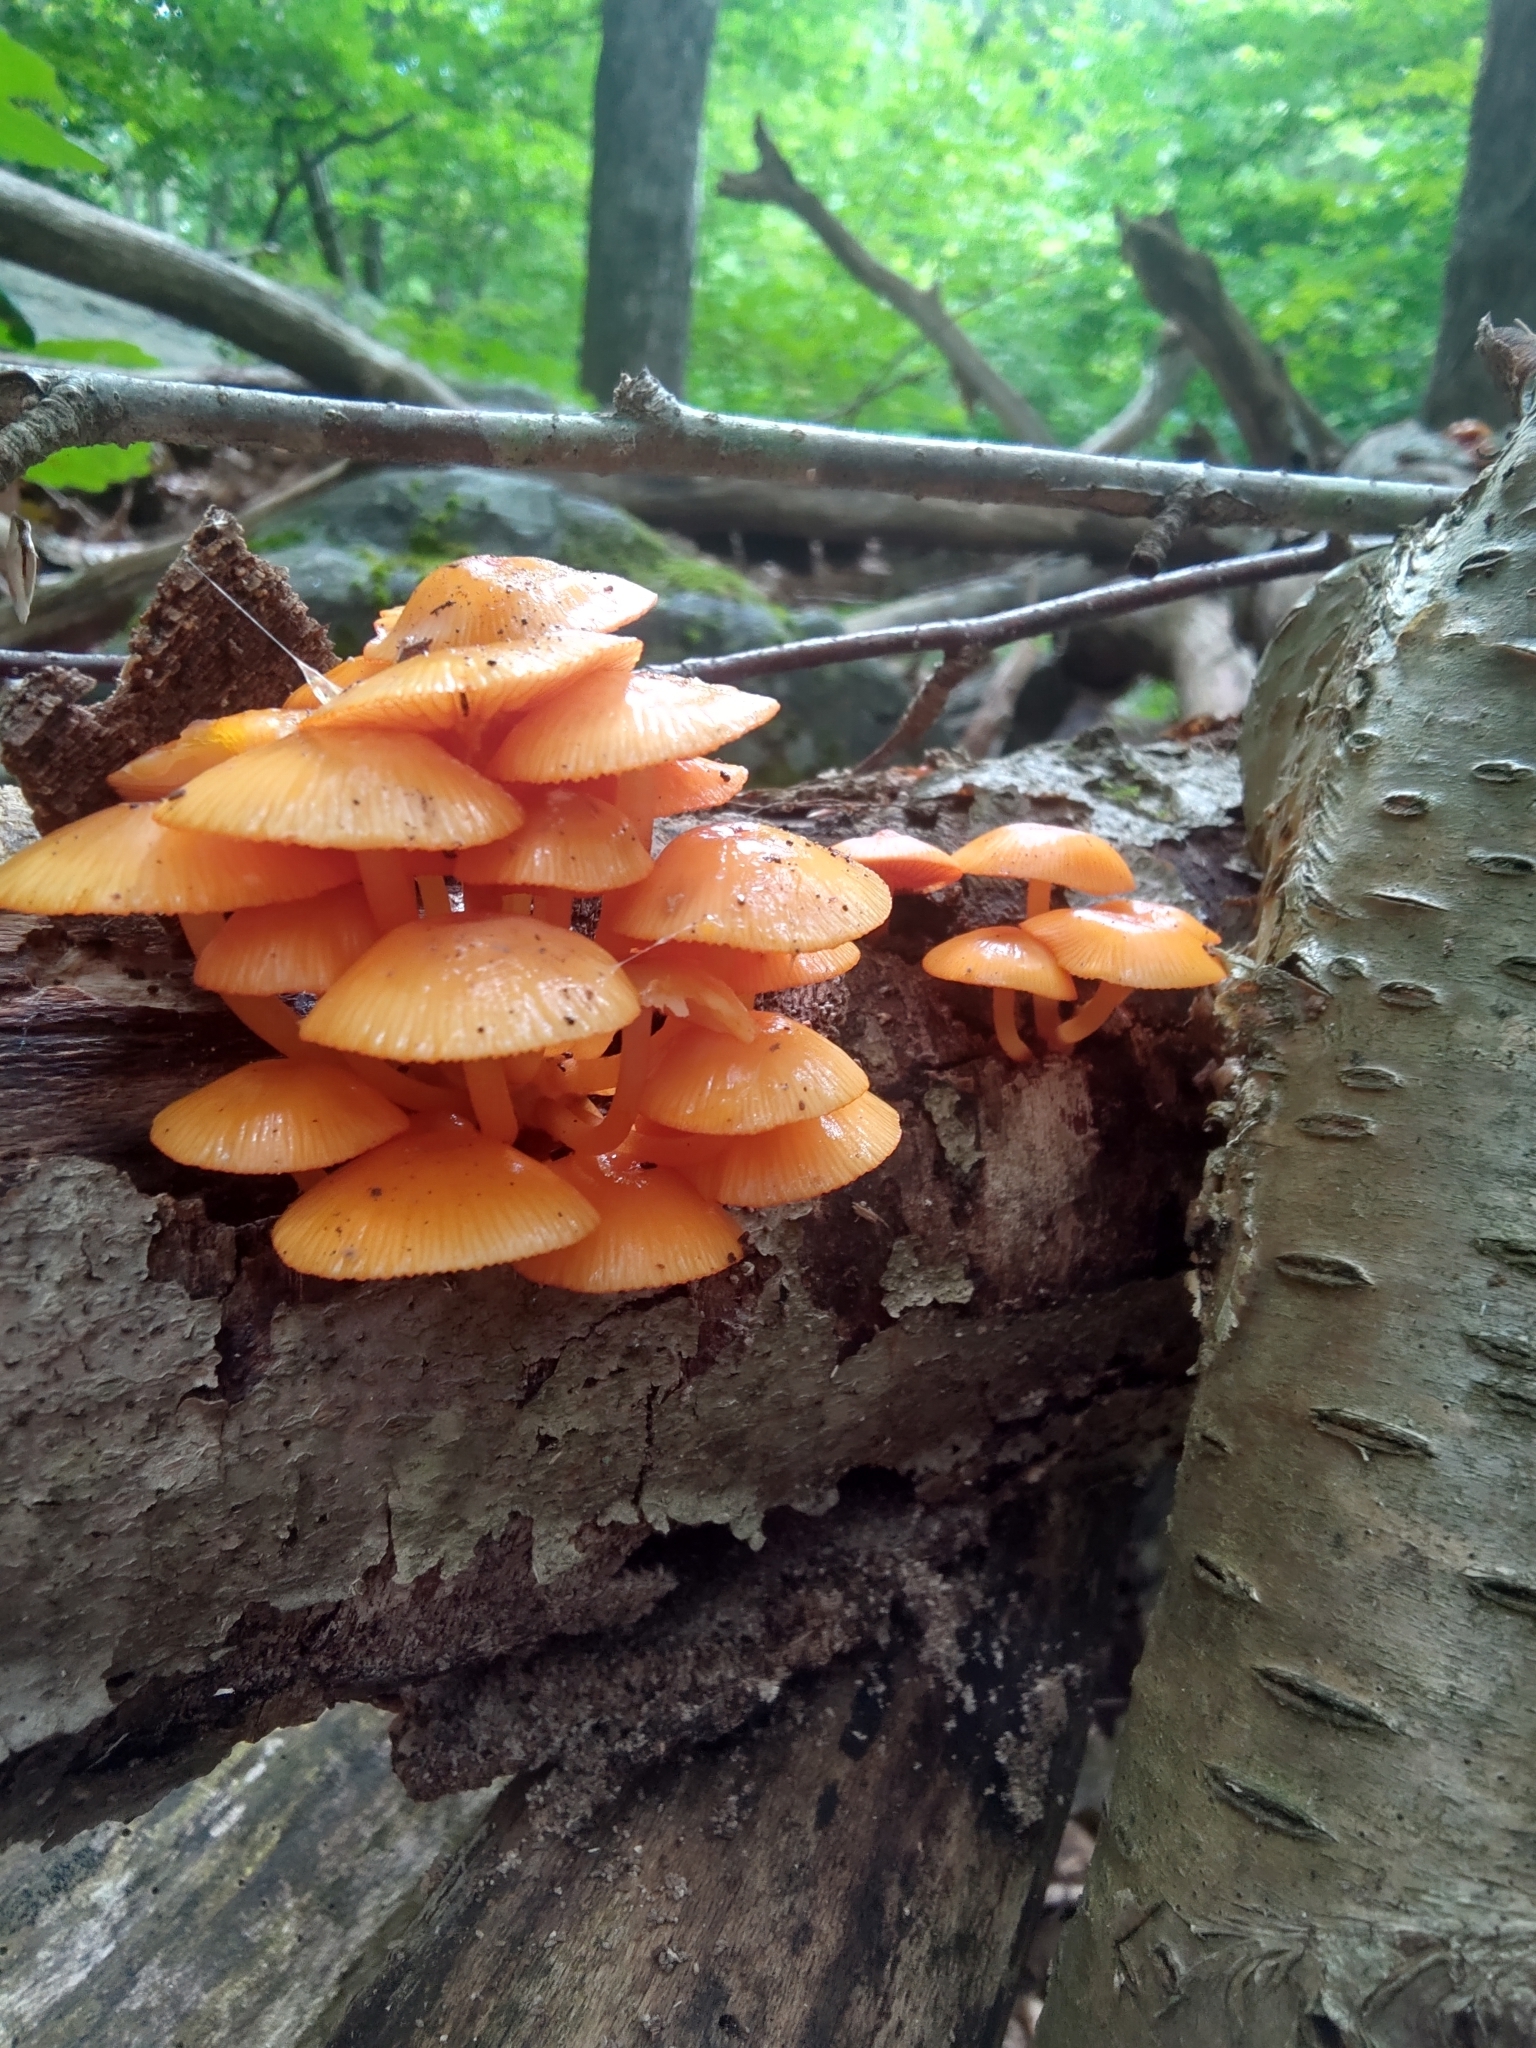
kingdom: Fungi
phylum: Basidiomycota
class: Agaricomycetes
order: Agaricales
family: Mycenaceae
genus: Mycena
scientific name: Mycena leaiana
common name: Orange mycena
